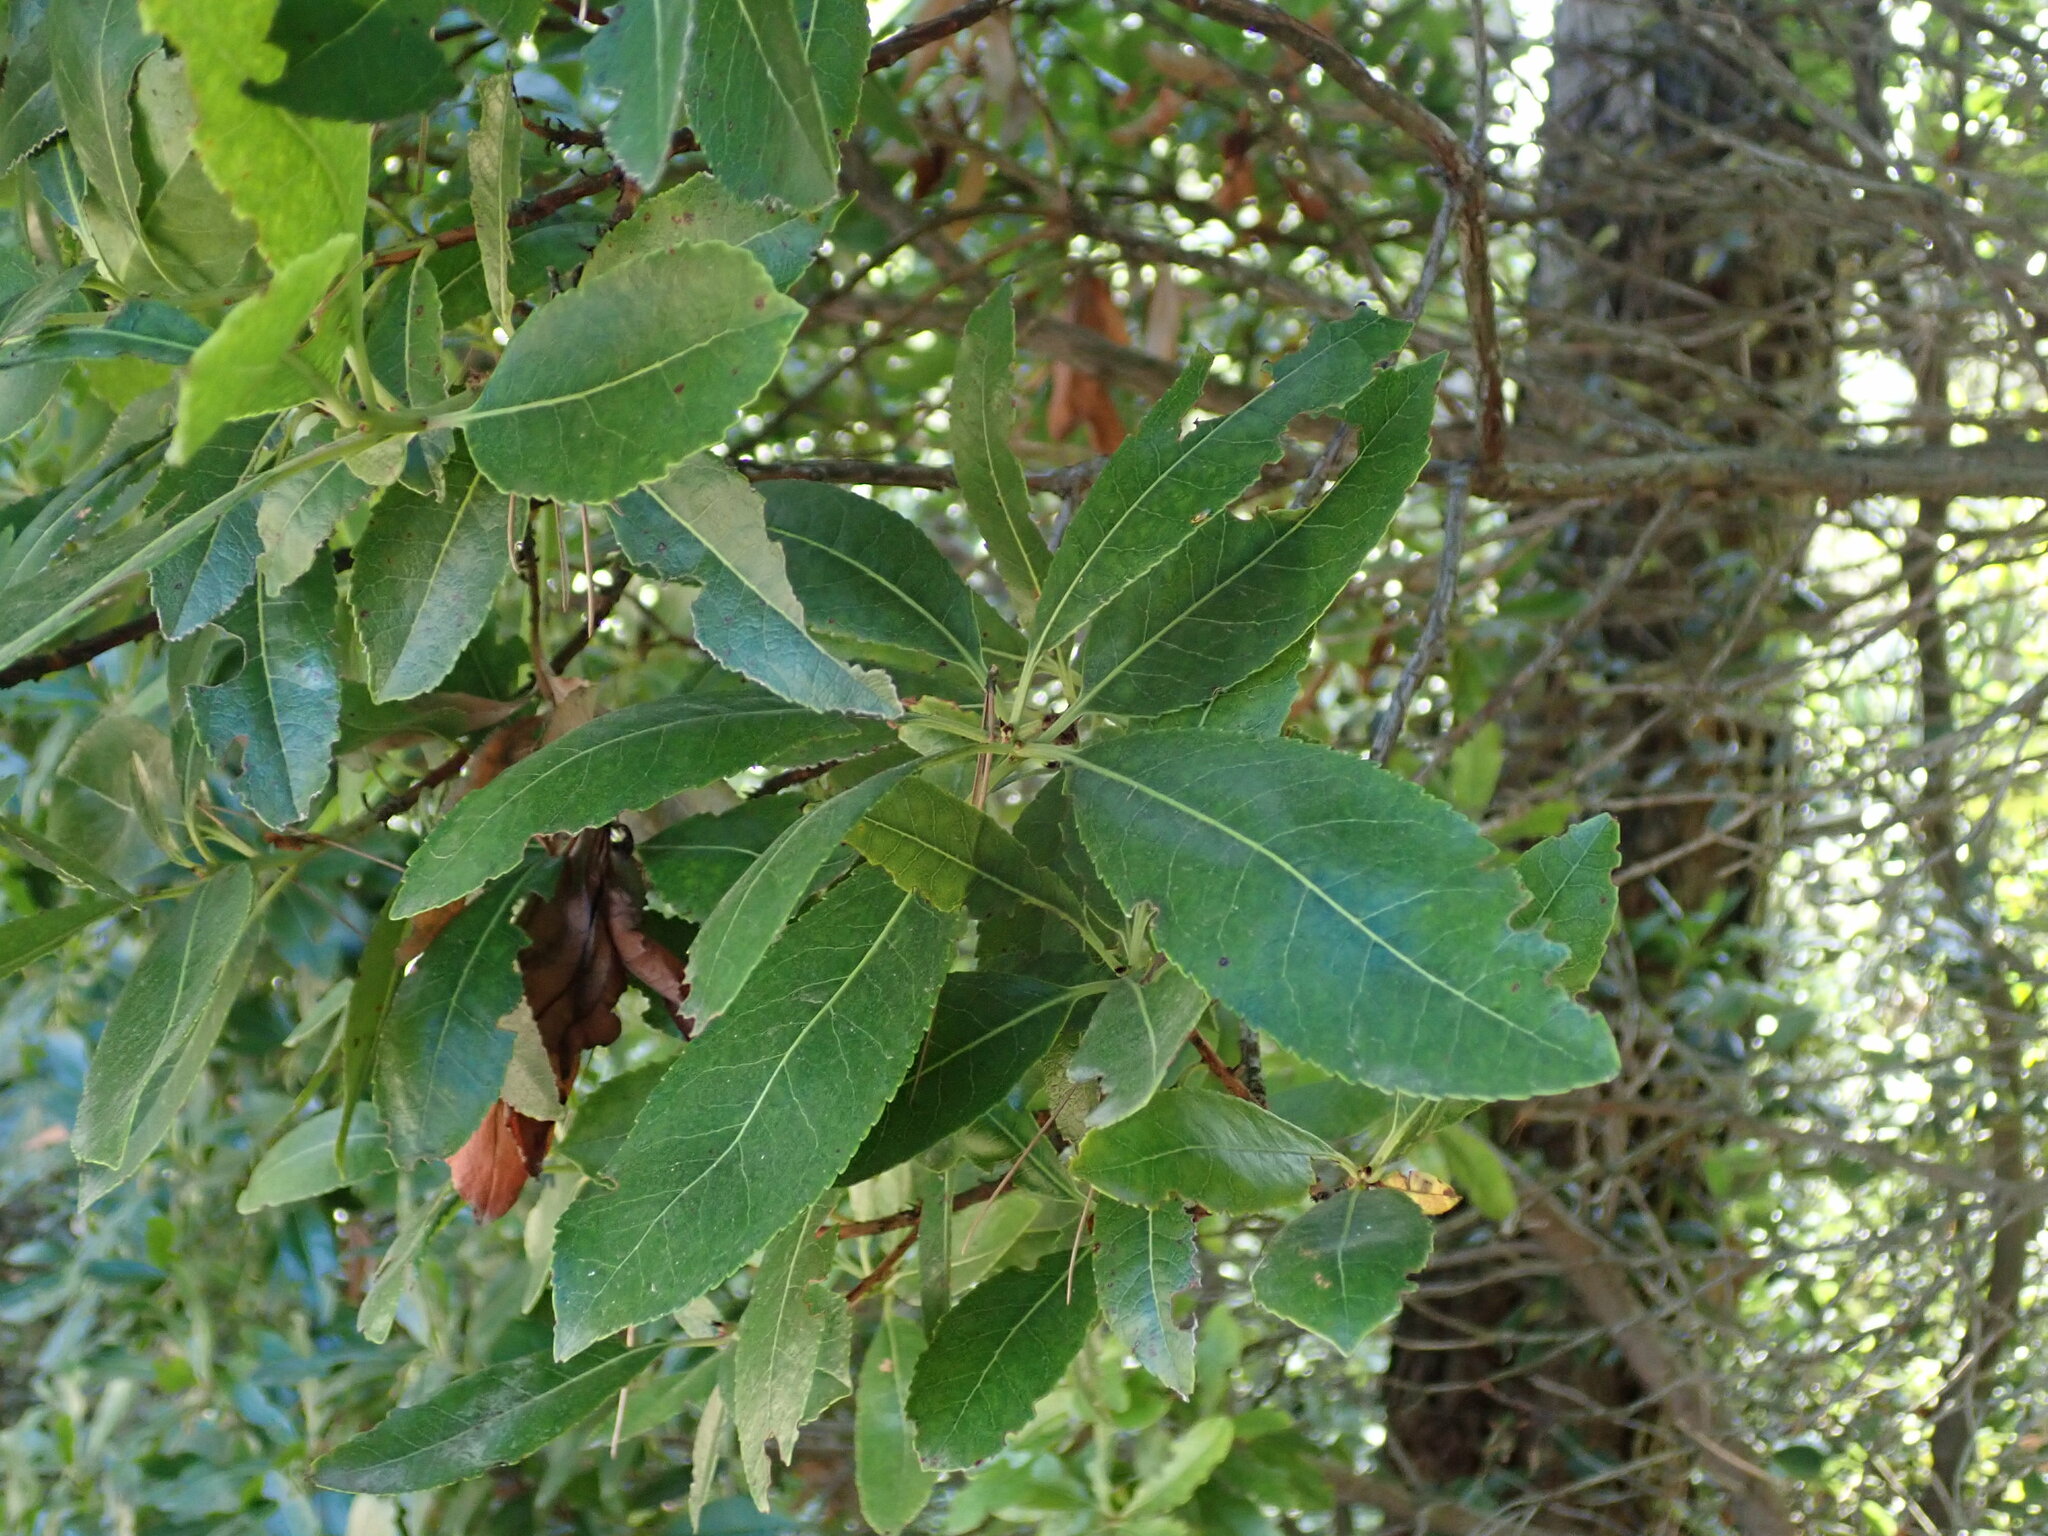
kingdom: Plantae
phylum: Tracheophyta
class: Magnoliopsida
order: Ericales
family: Ericaceae
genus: Arbutus
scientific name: Arbutus unedo
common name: Strawberry-tree
